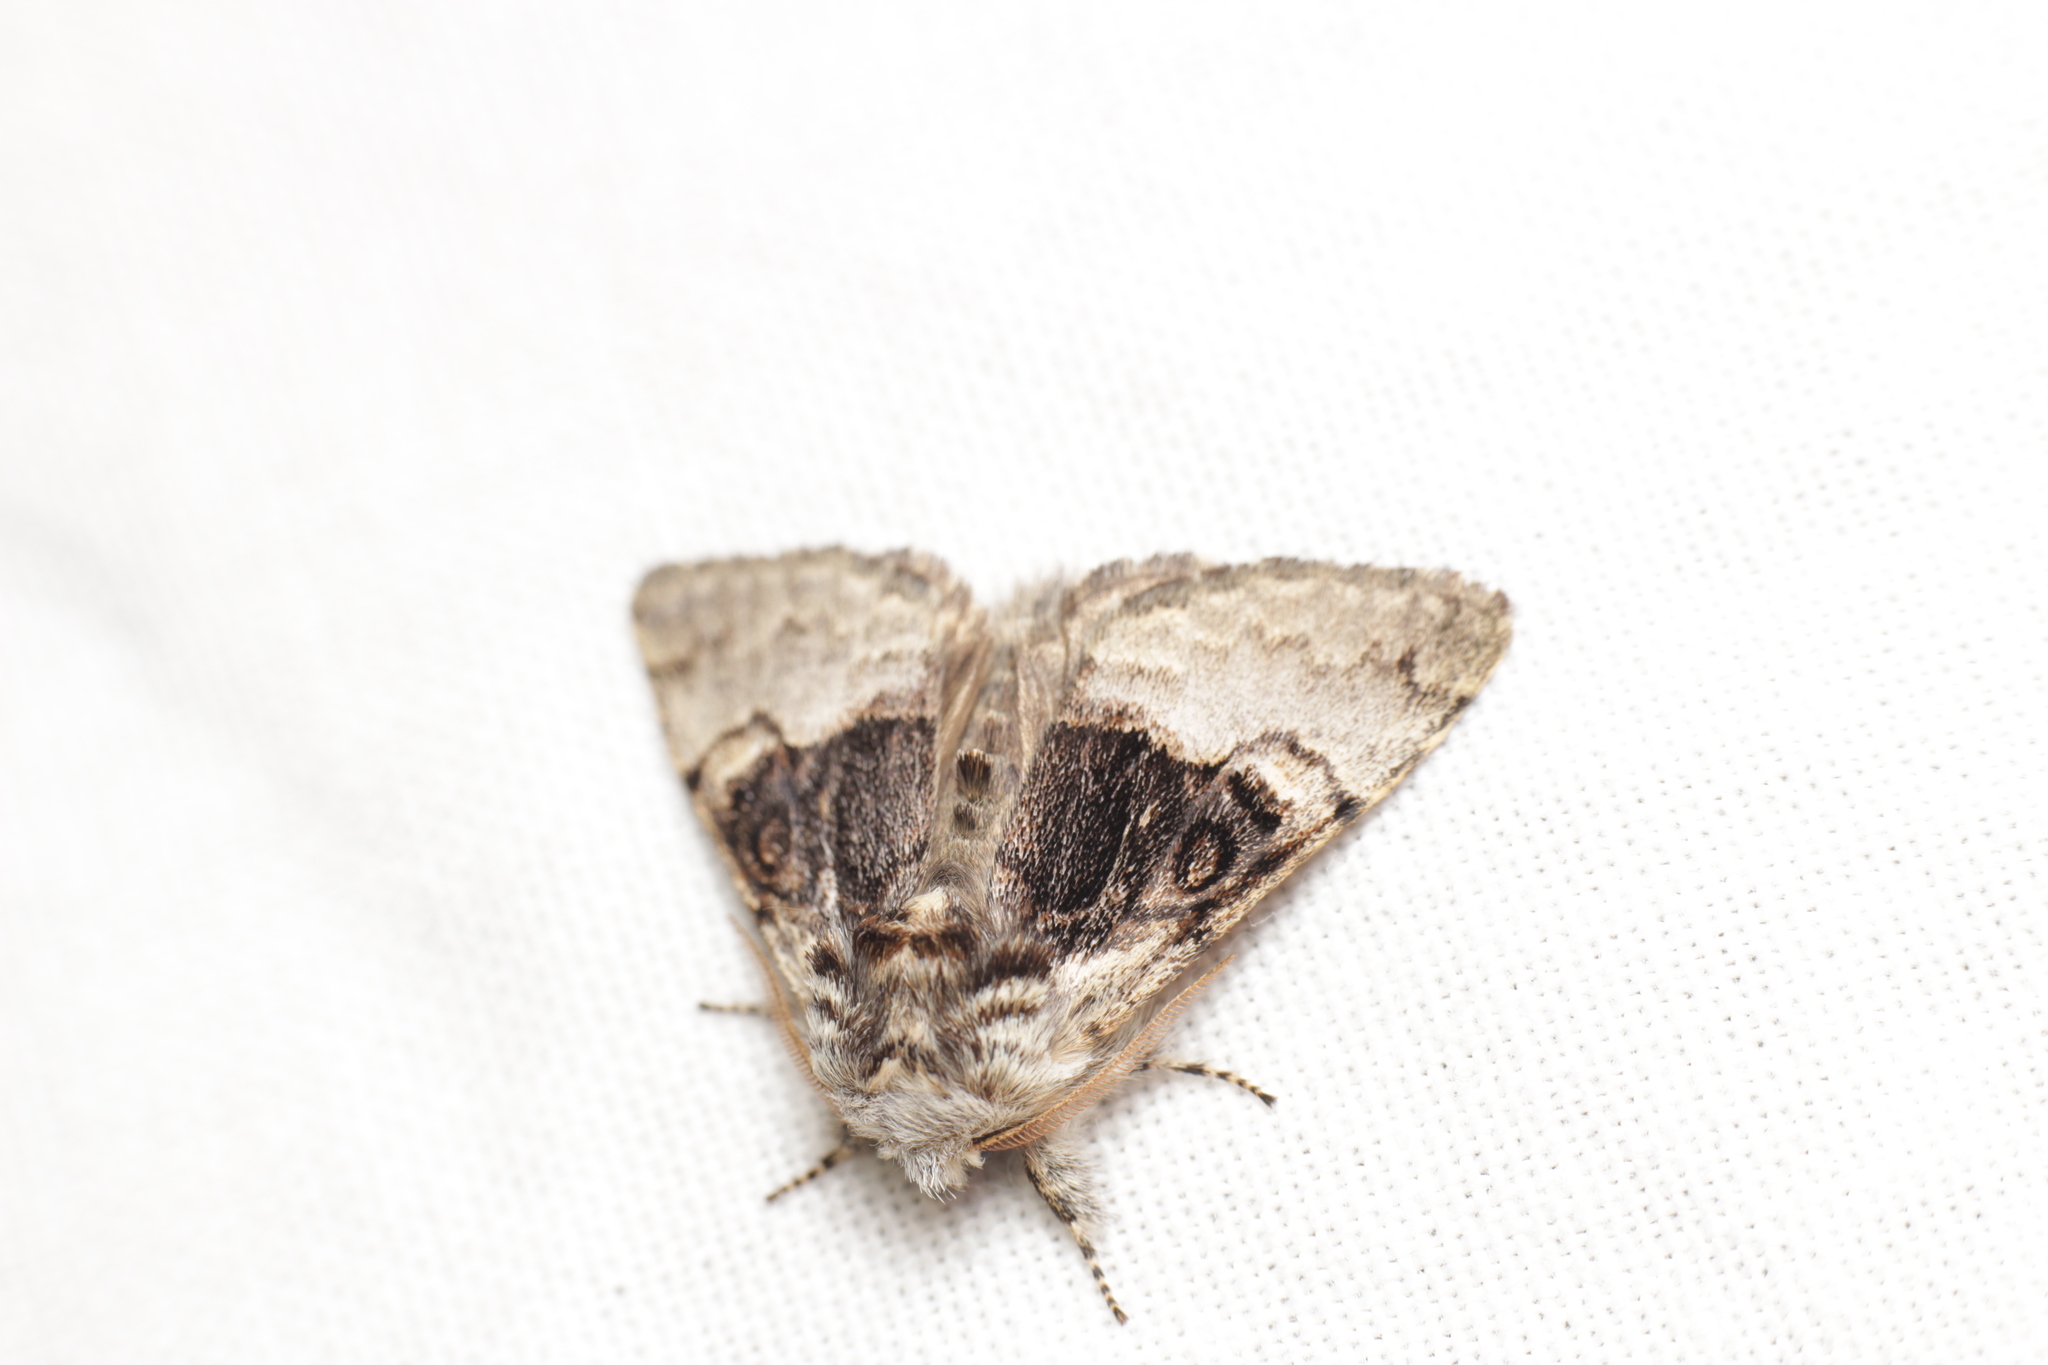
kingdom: Animalia
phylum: Arthropoda
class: Insecta
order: Lepidoptera
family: Noctuidae
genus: Colocasia
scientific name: Colocasia coryli
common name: Nut-tree tussock
